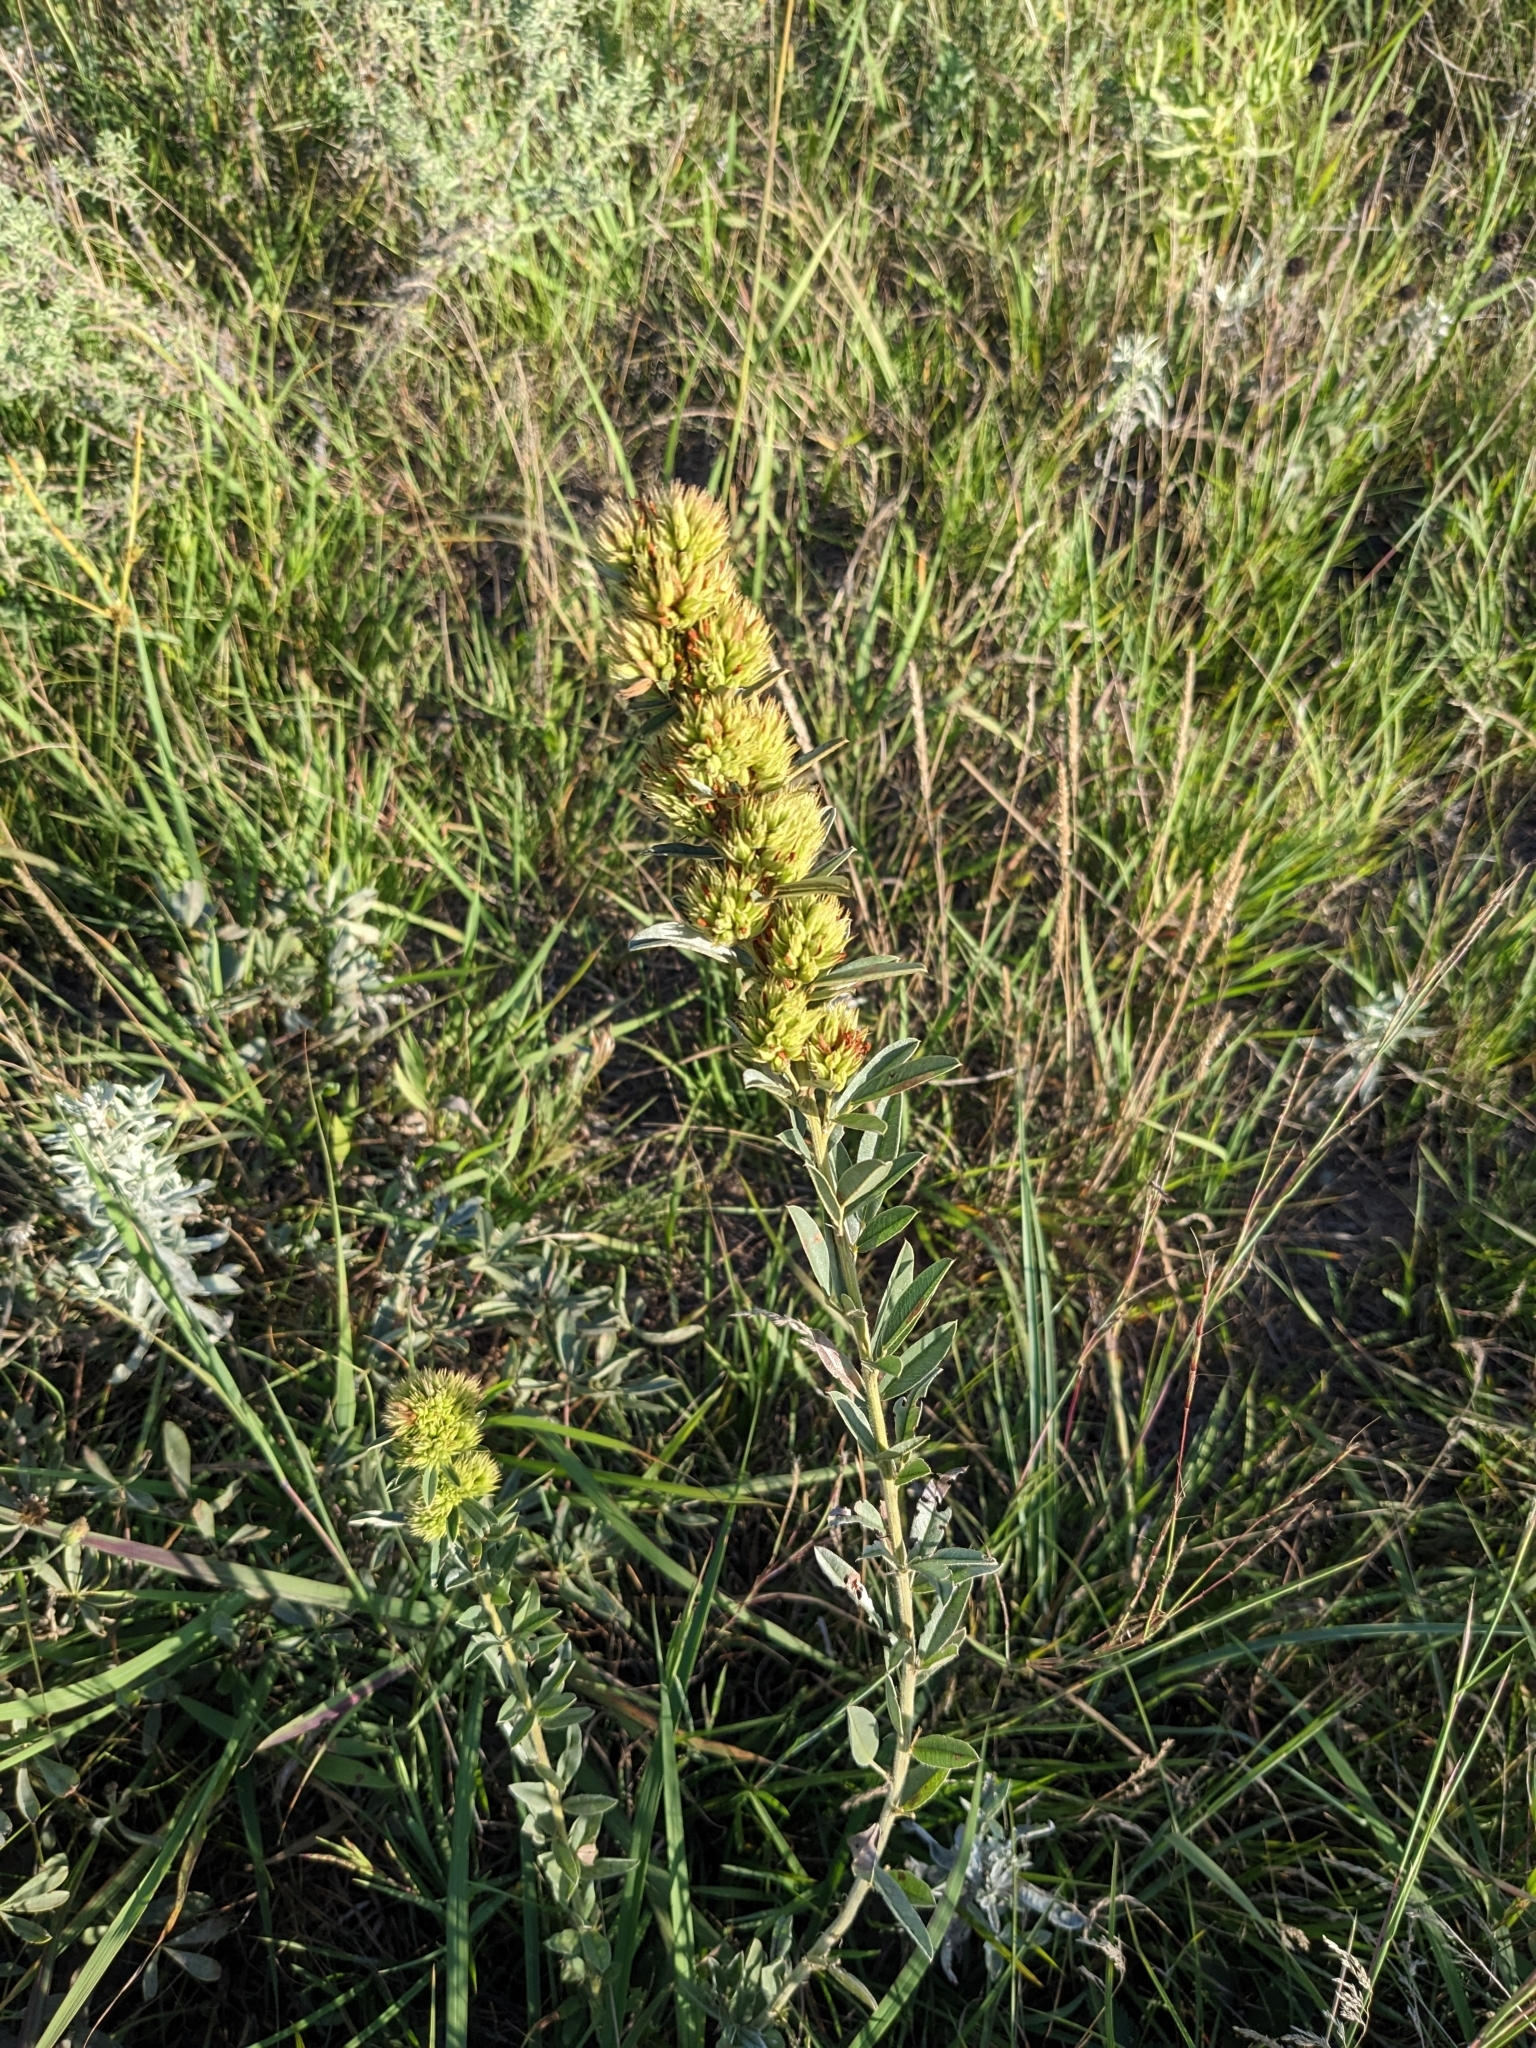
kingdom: Plantae
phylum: Tracheophyta
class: Magnoliopsida
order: Fabales
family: Fabaceae
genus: Lespedeza
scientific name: Lespedeza capitata
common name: Dusty clover
